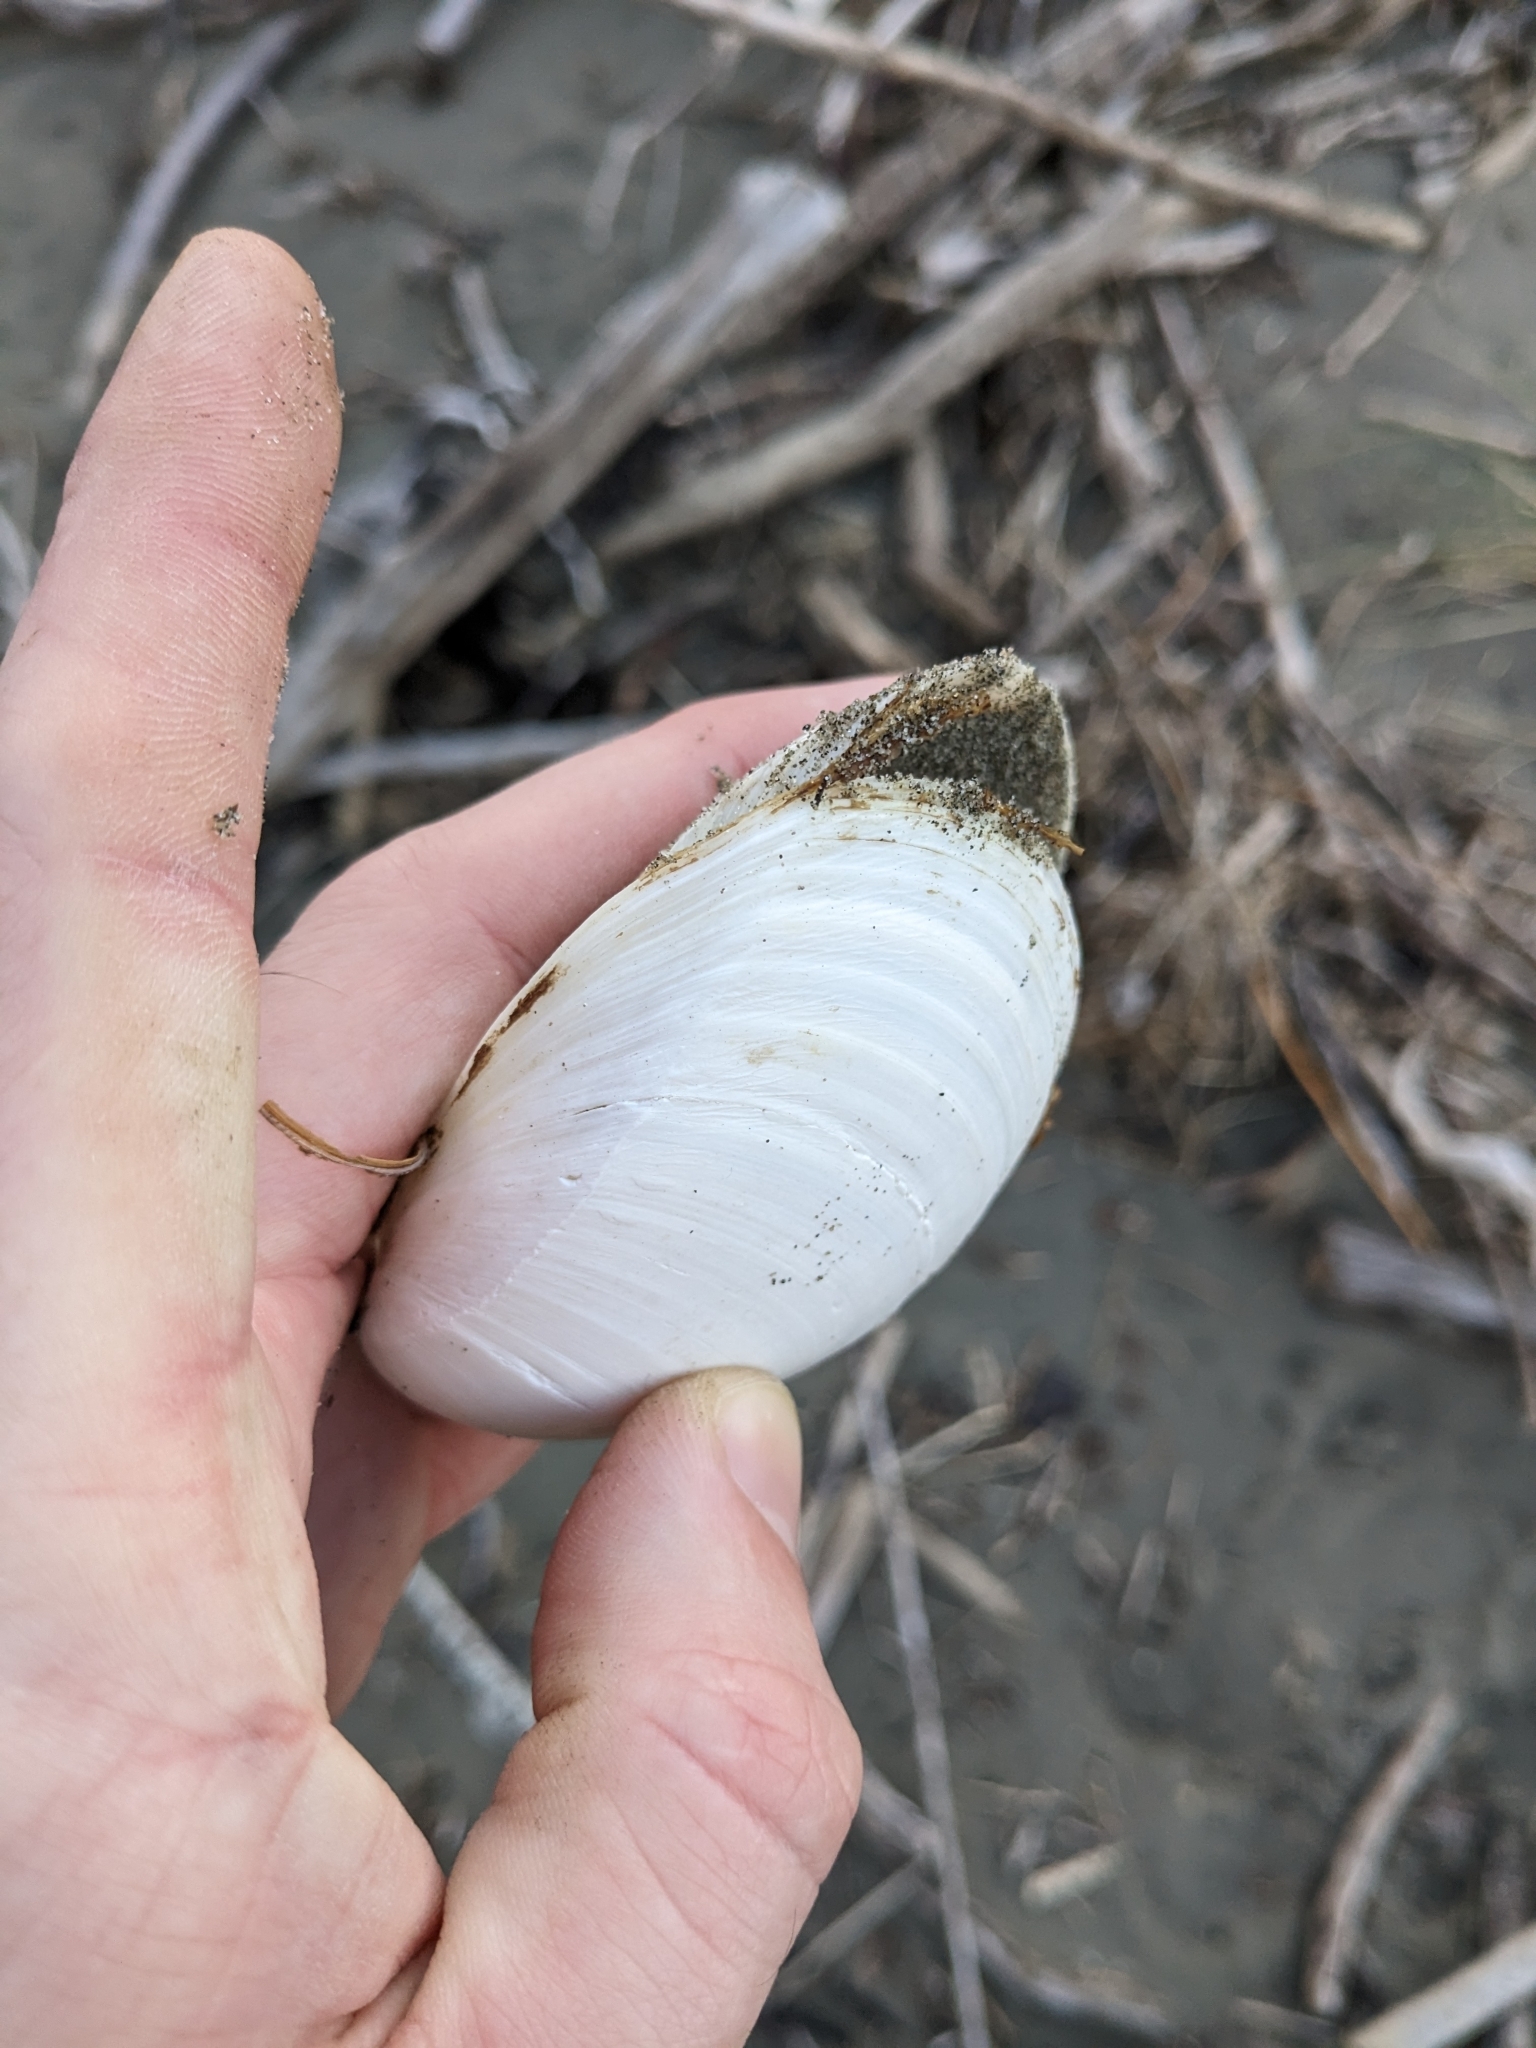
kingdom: Animalia
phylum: Mollusca
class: Bivalvia
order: Venerida
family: Mactridae
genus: Spisula
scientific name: Spisula discors
